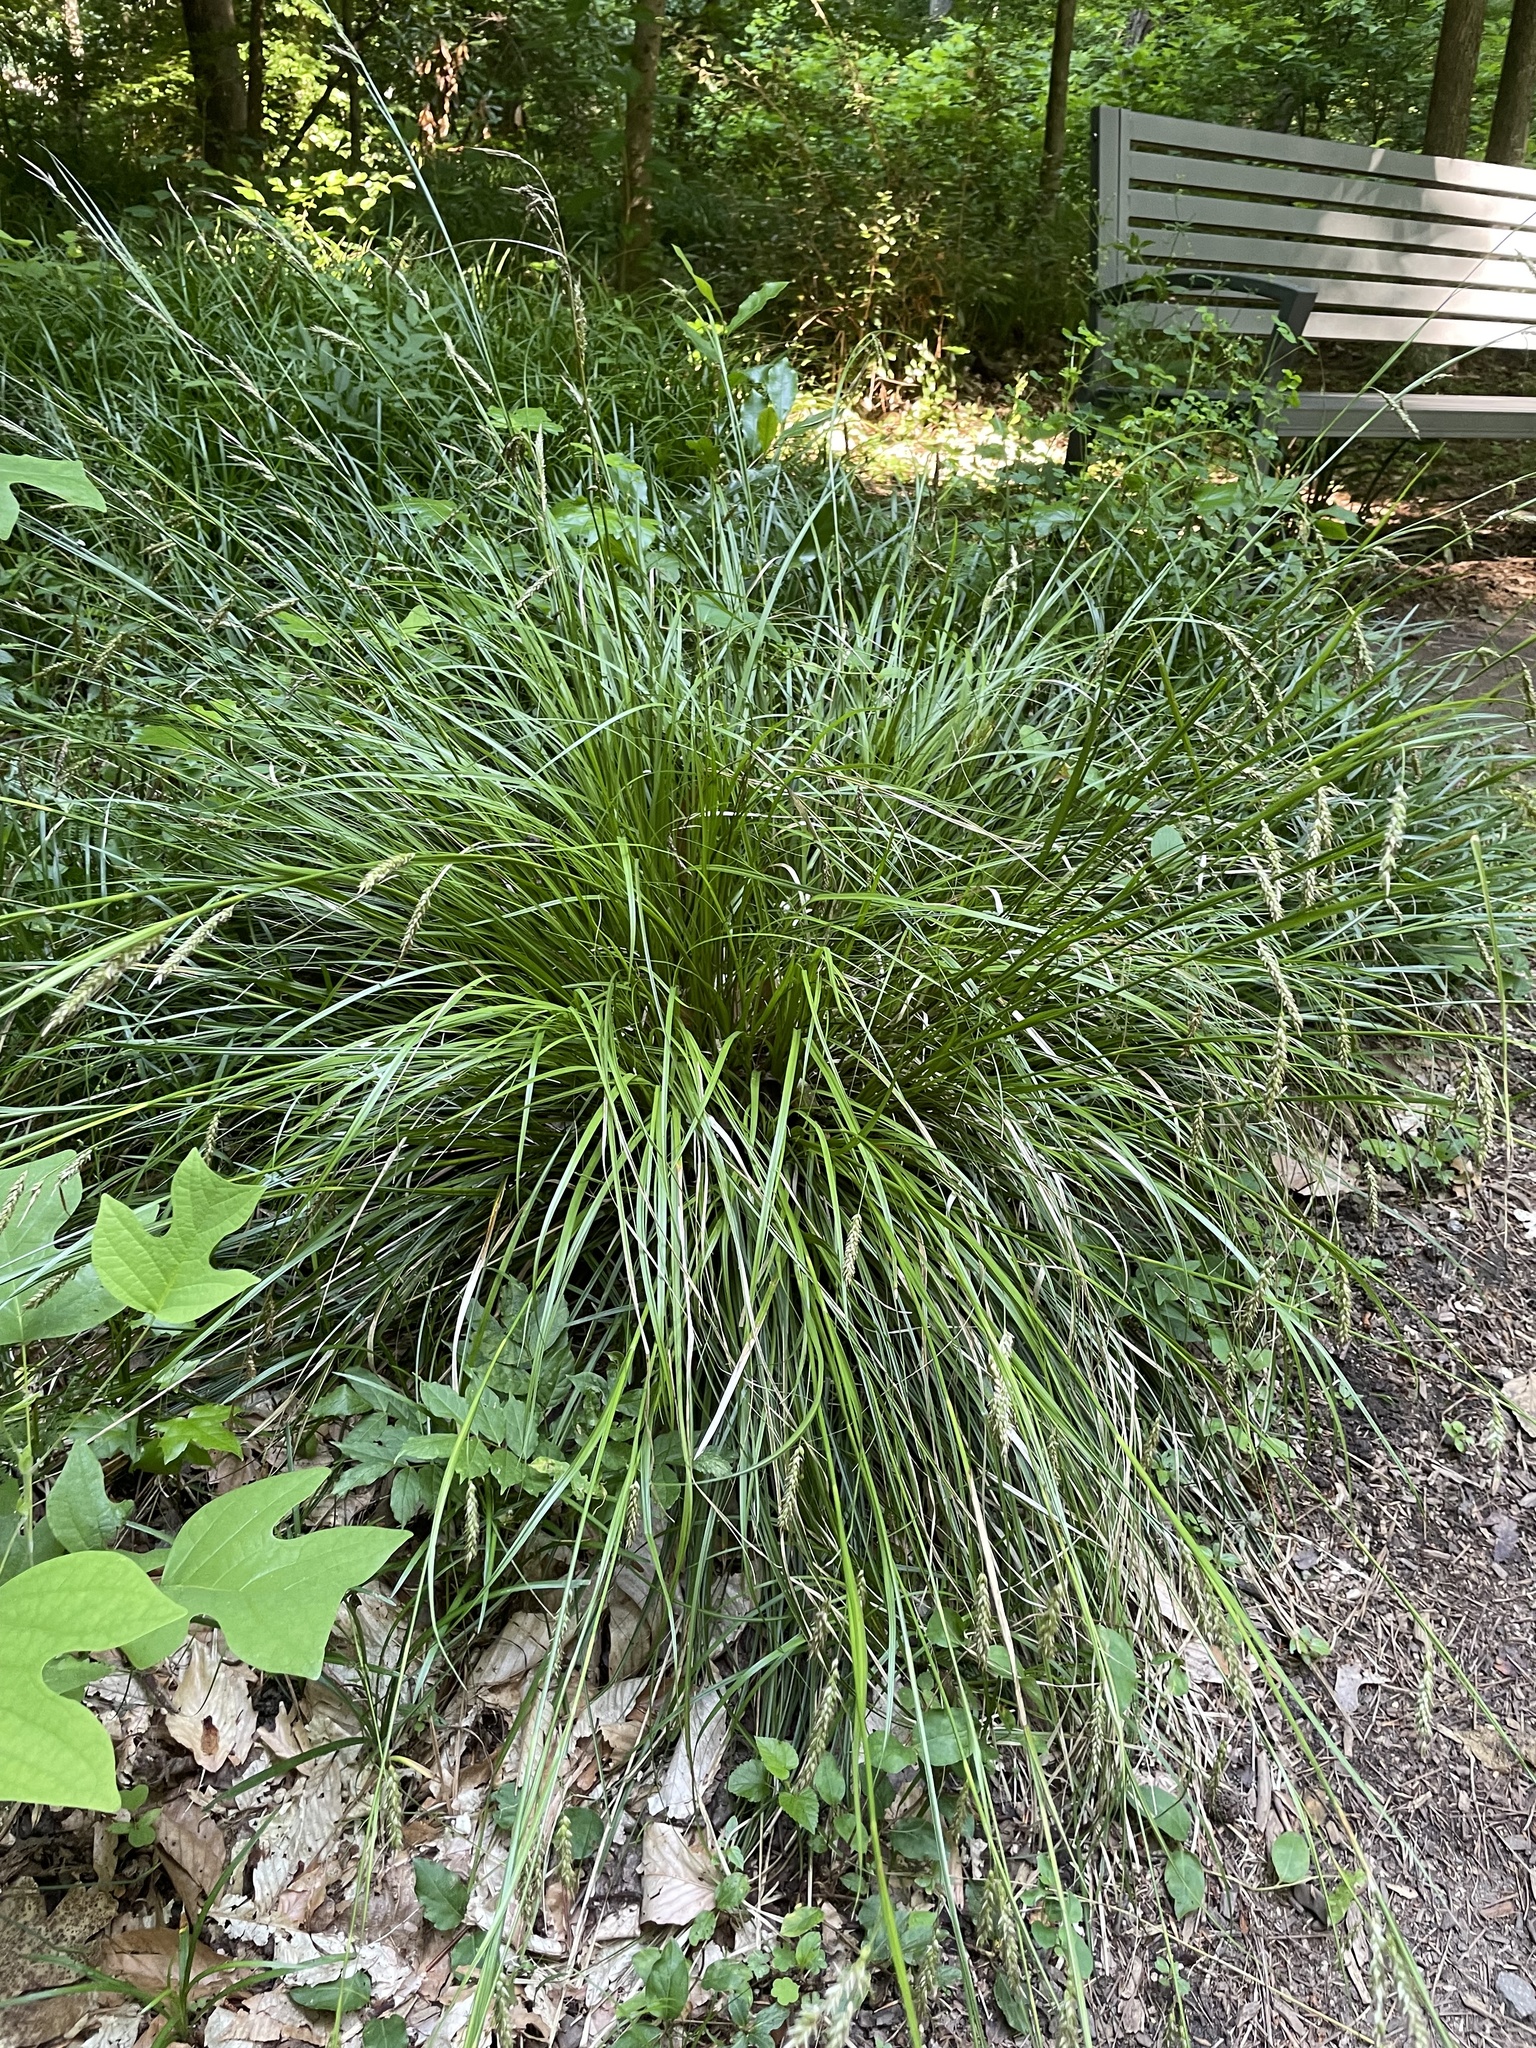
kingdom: Plantae
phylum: Tracheophyta
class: Liliopsida
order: Poales
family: Cyperaceae
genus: Carex
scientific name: Carex cherokeensis
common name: Cherokee sedge
